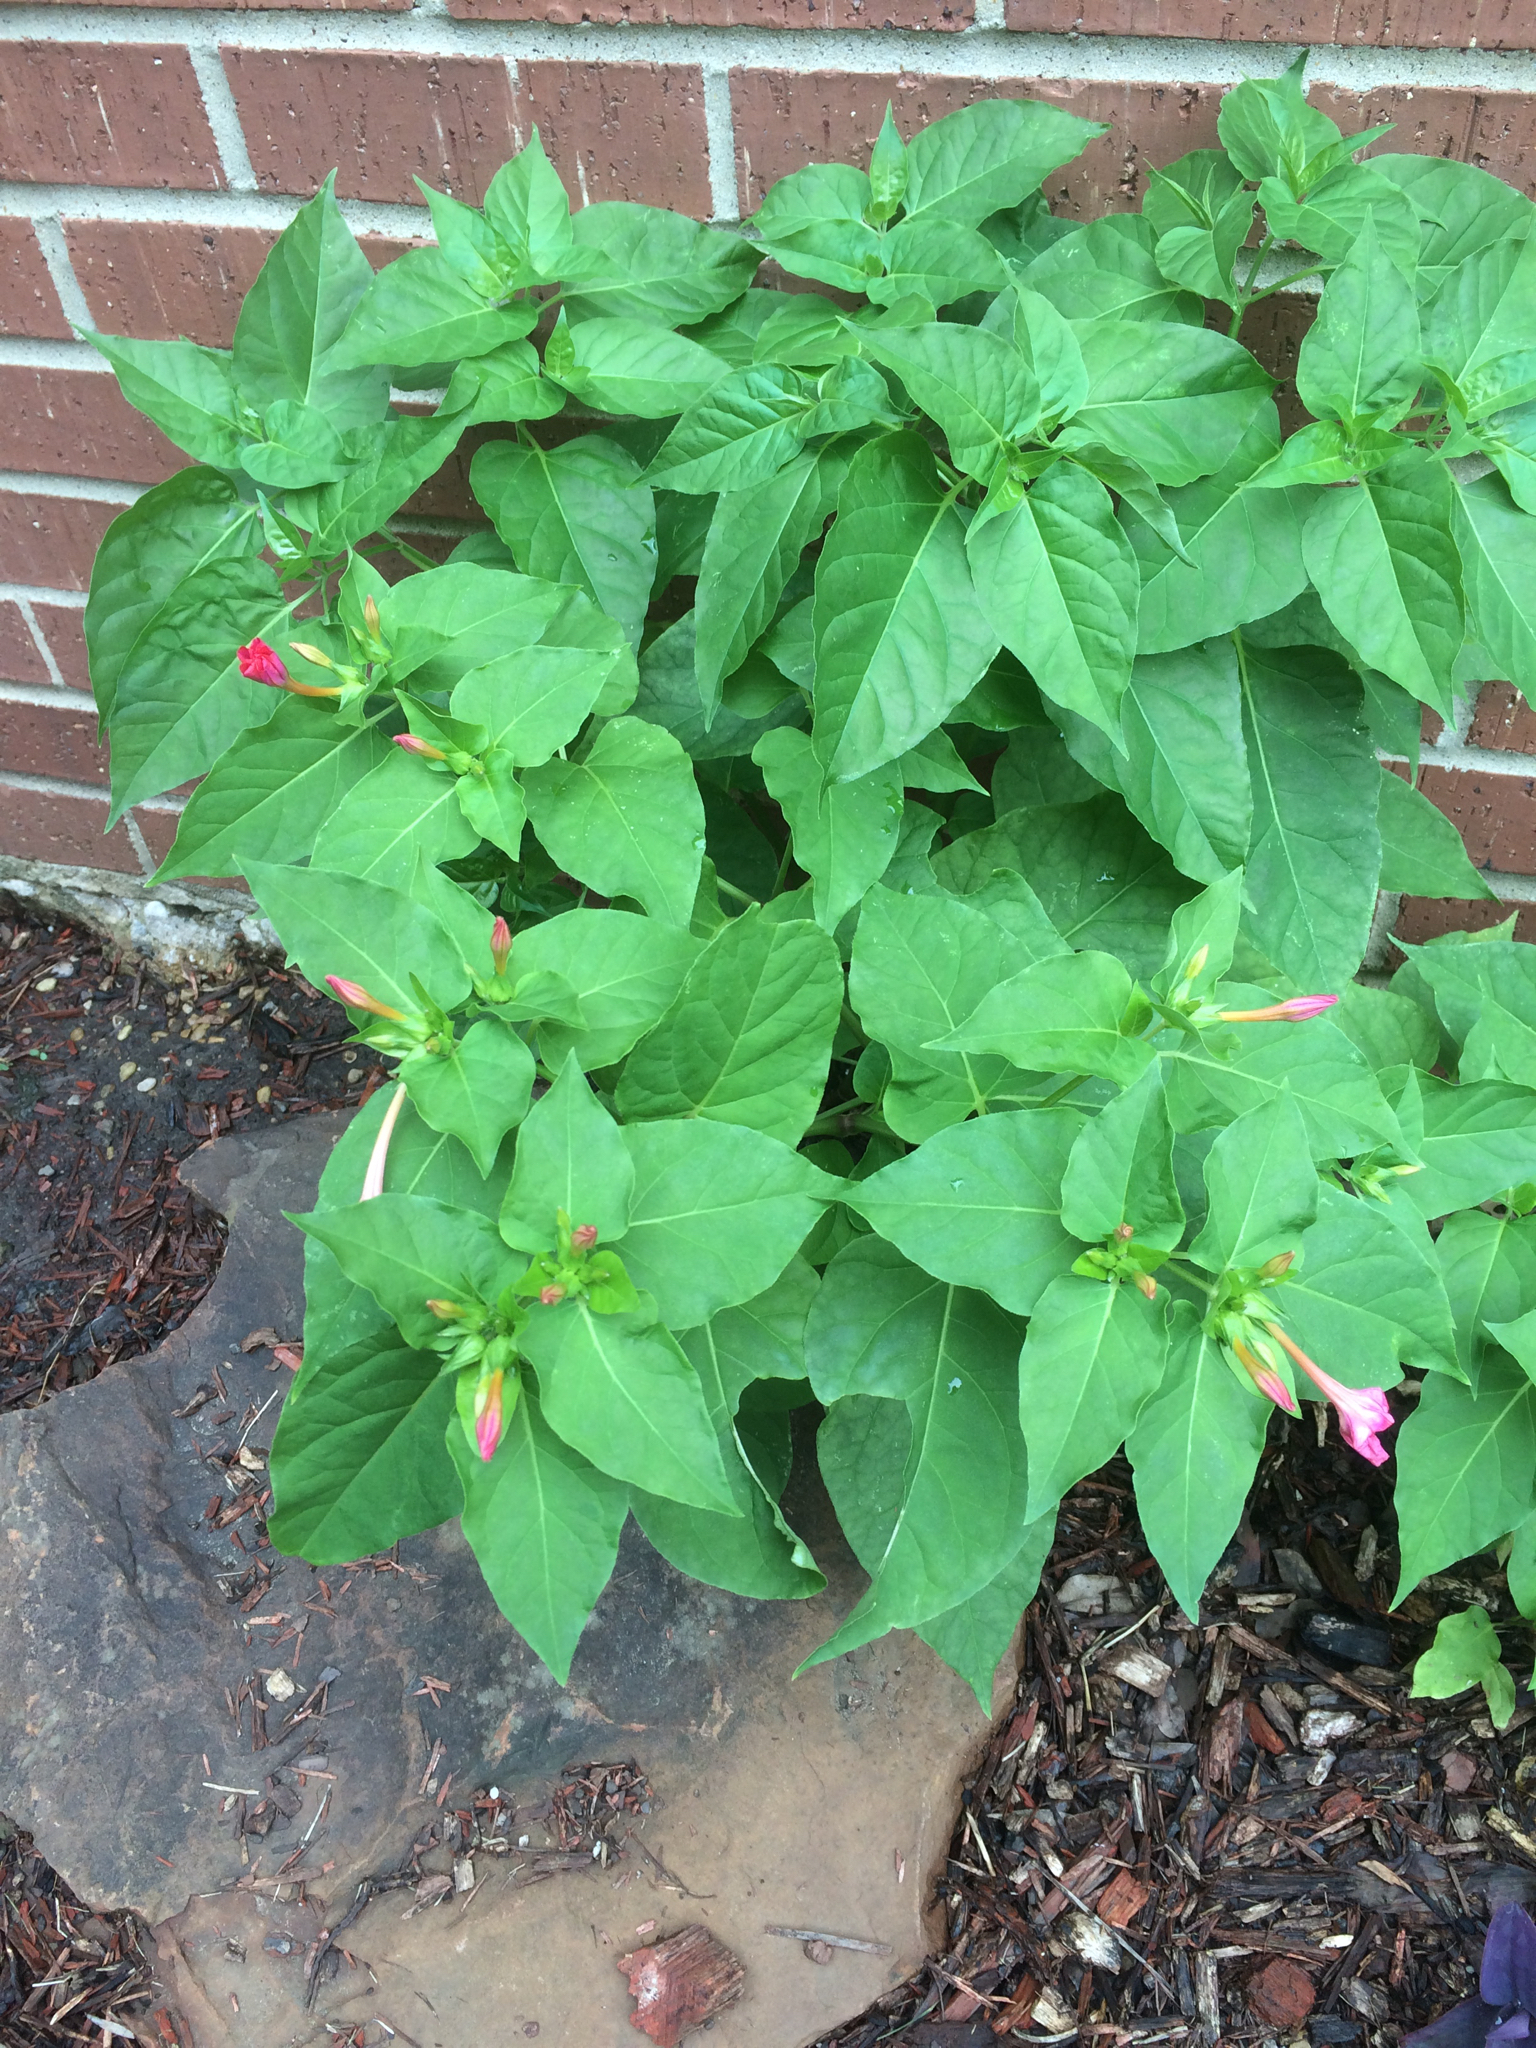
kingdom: Plantae
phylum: Tracheophyta
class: Magnoliopsida
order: Caryophyllales
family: Nyctaginaceae
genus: Mirabilis
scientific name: Mirabilis jalapa
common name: Marvel-of-peru
